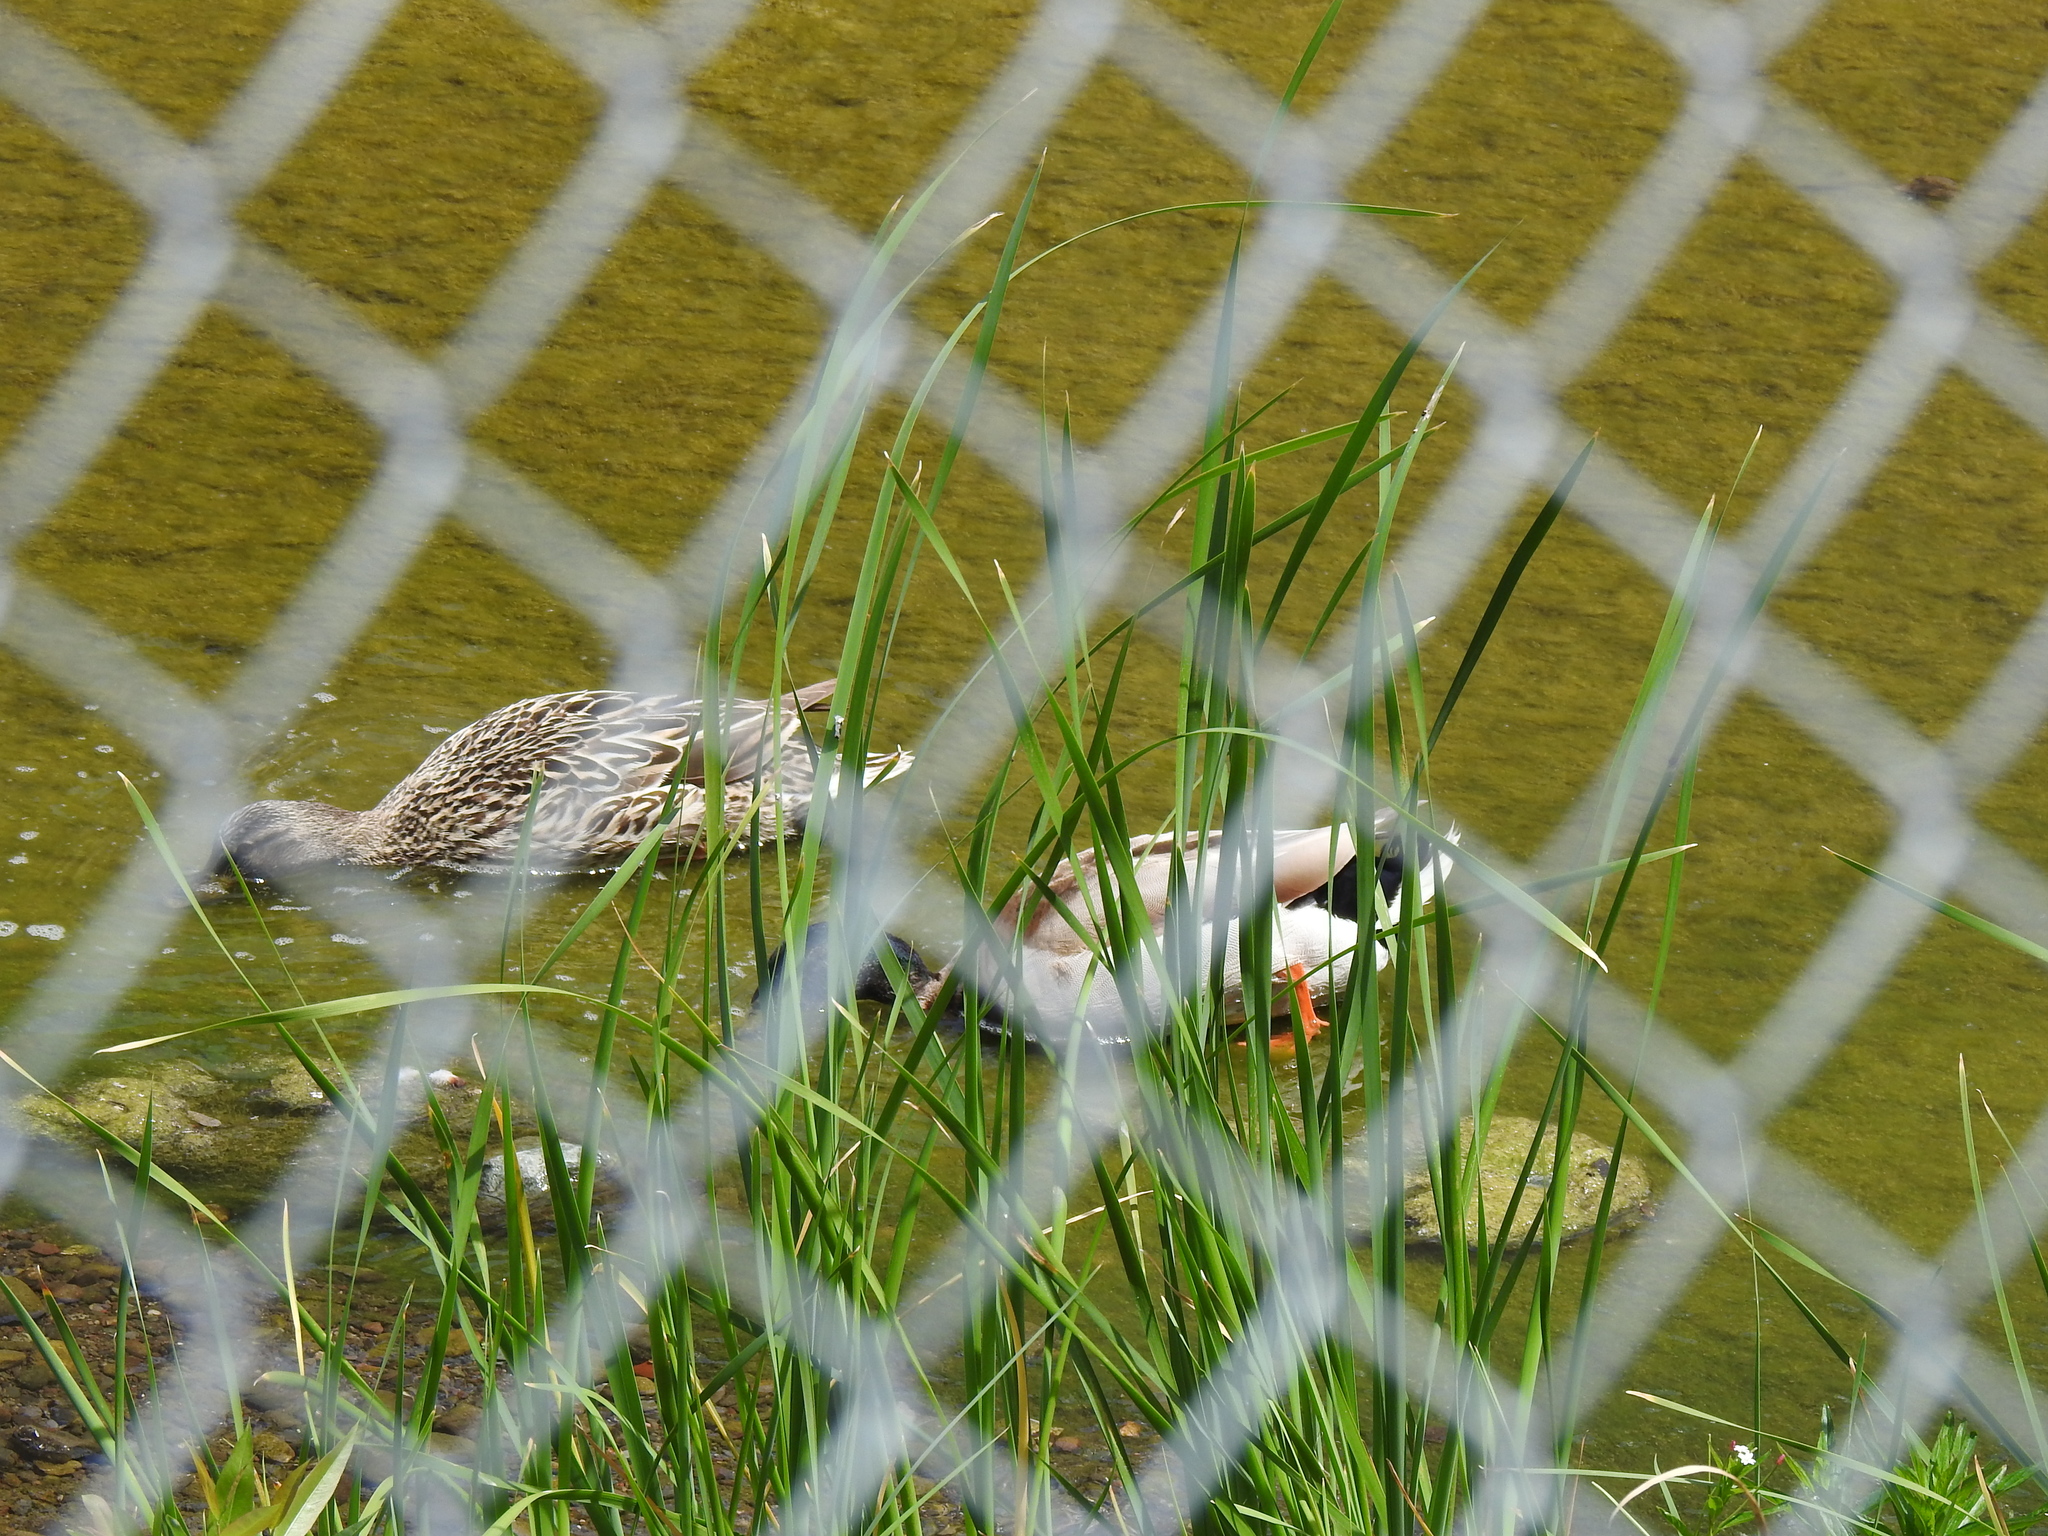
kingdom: Animalia
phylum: Chordata
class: Aves
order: Anseriformes
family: Anatidae
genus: Anas
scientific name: Anas platyrhynchos
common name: Mallard
